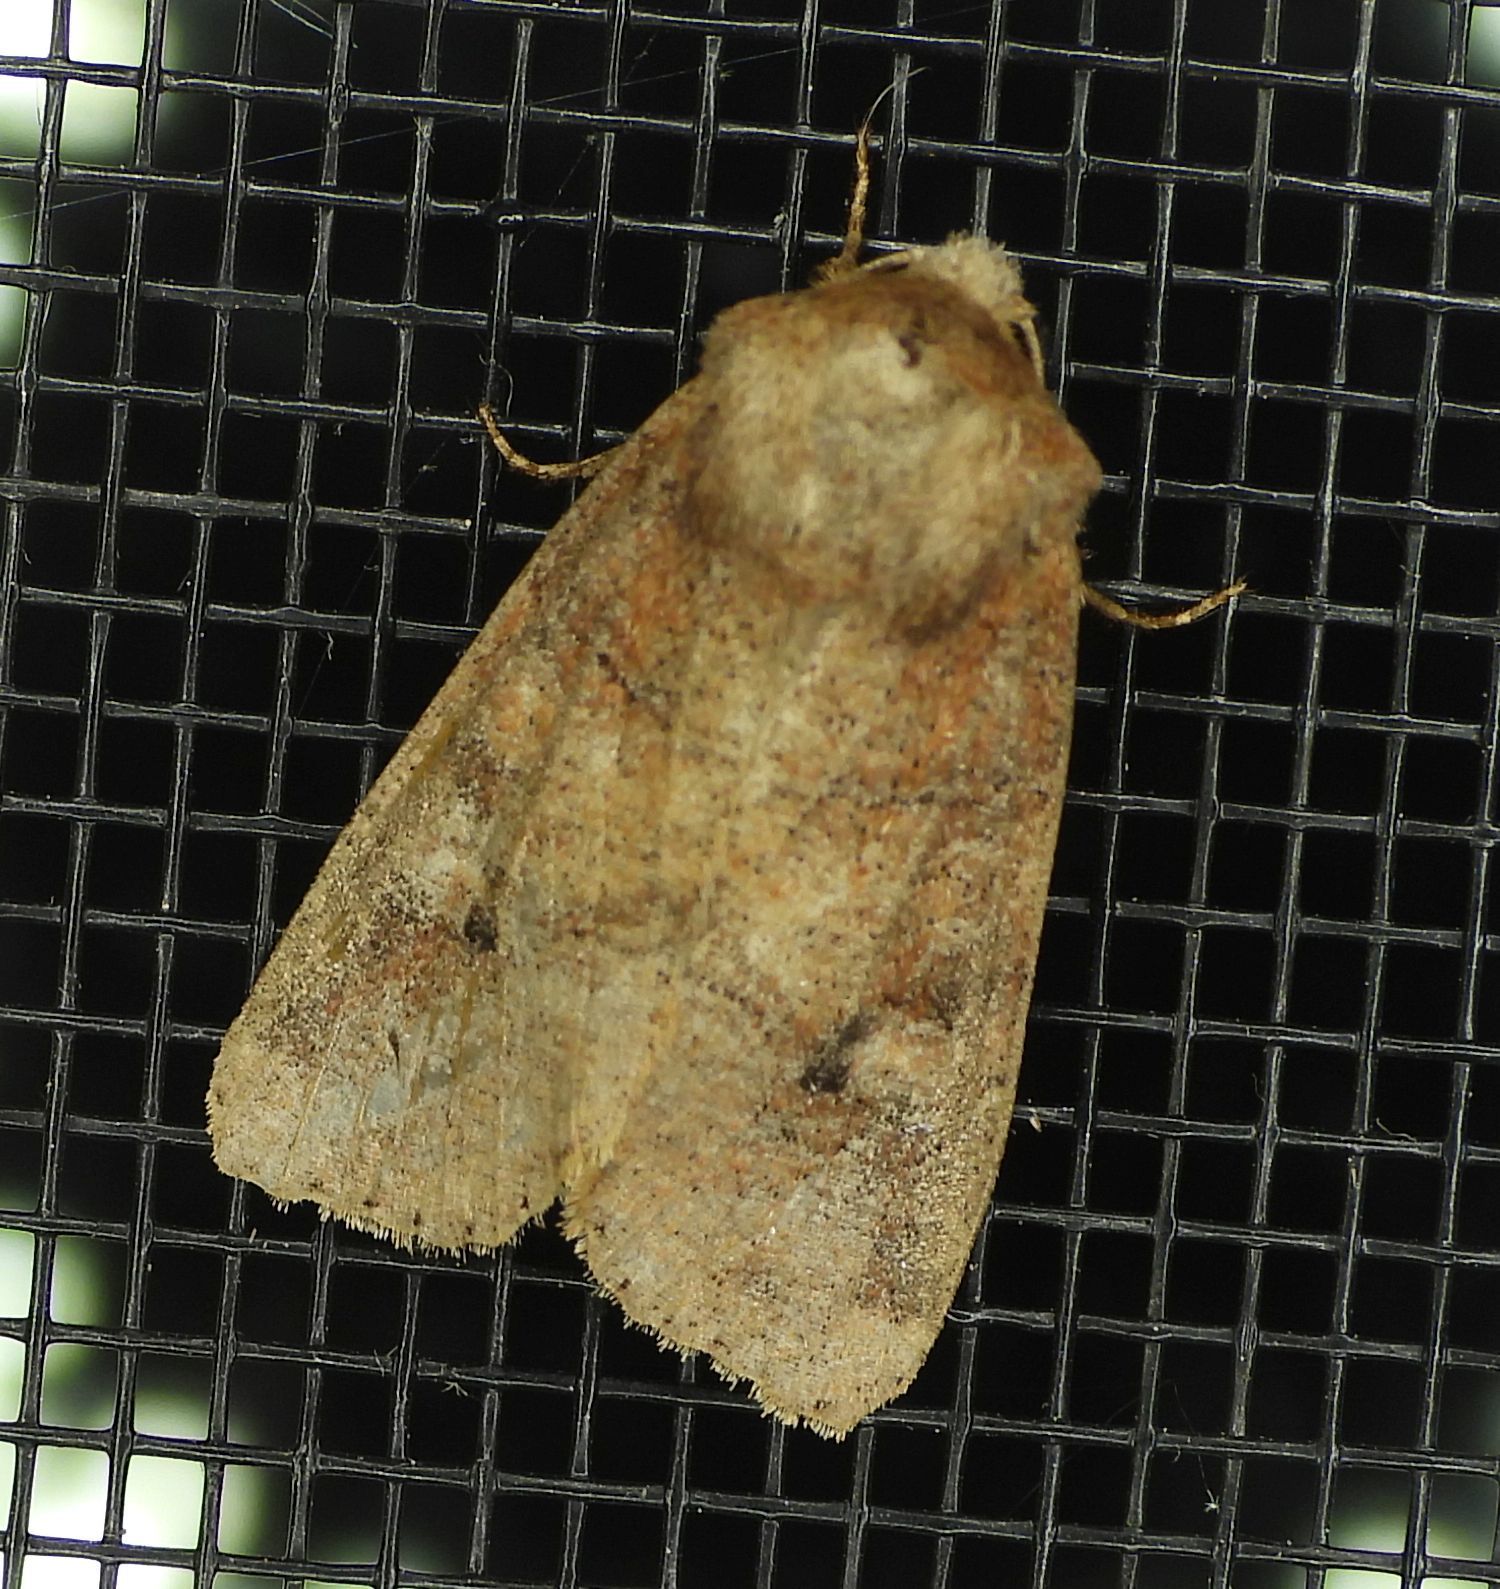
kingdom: Animalia
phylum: Arthropoda
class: Insecta
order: Lepidoptera
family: Noctuidae
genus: Crocigrapha
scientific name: Crocigrapha normani
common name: Norman's quaker
